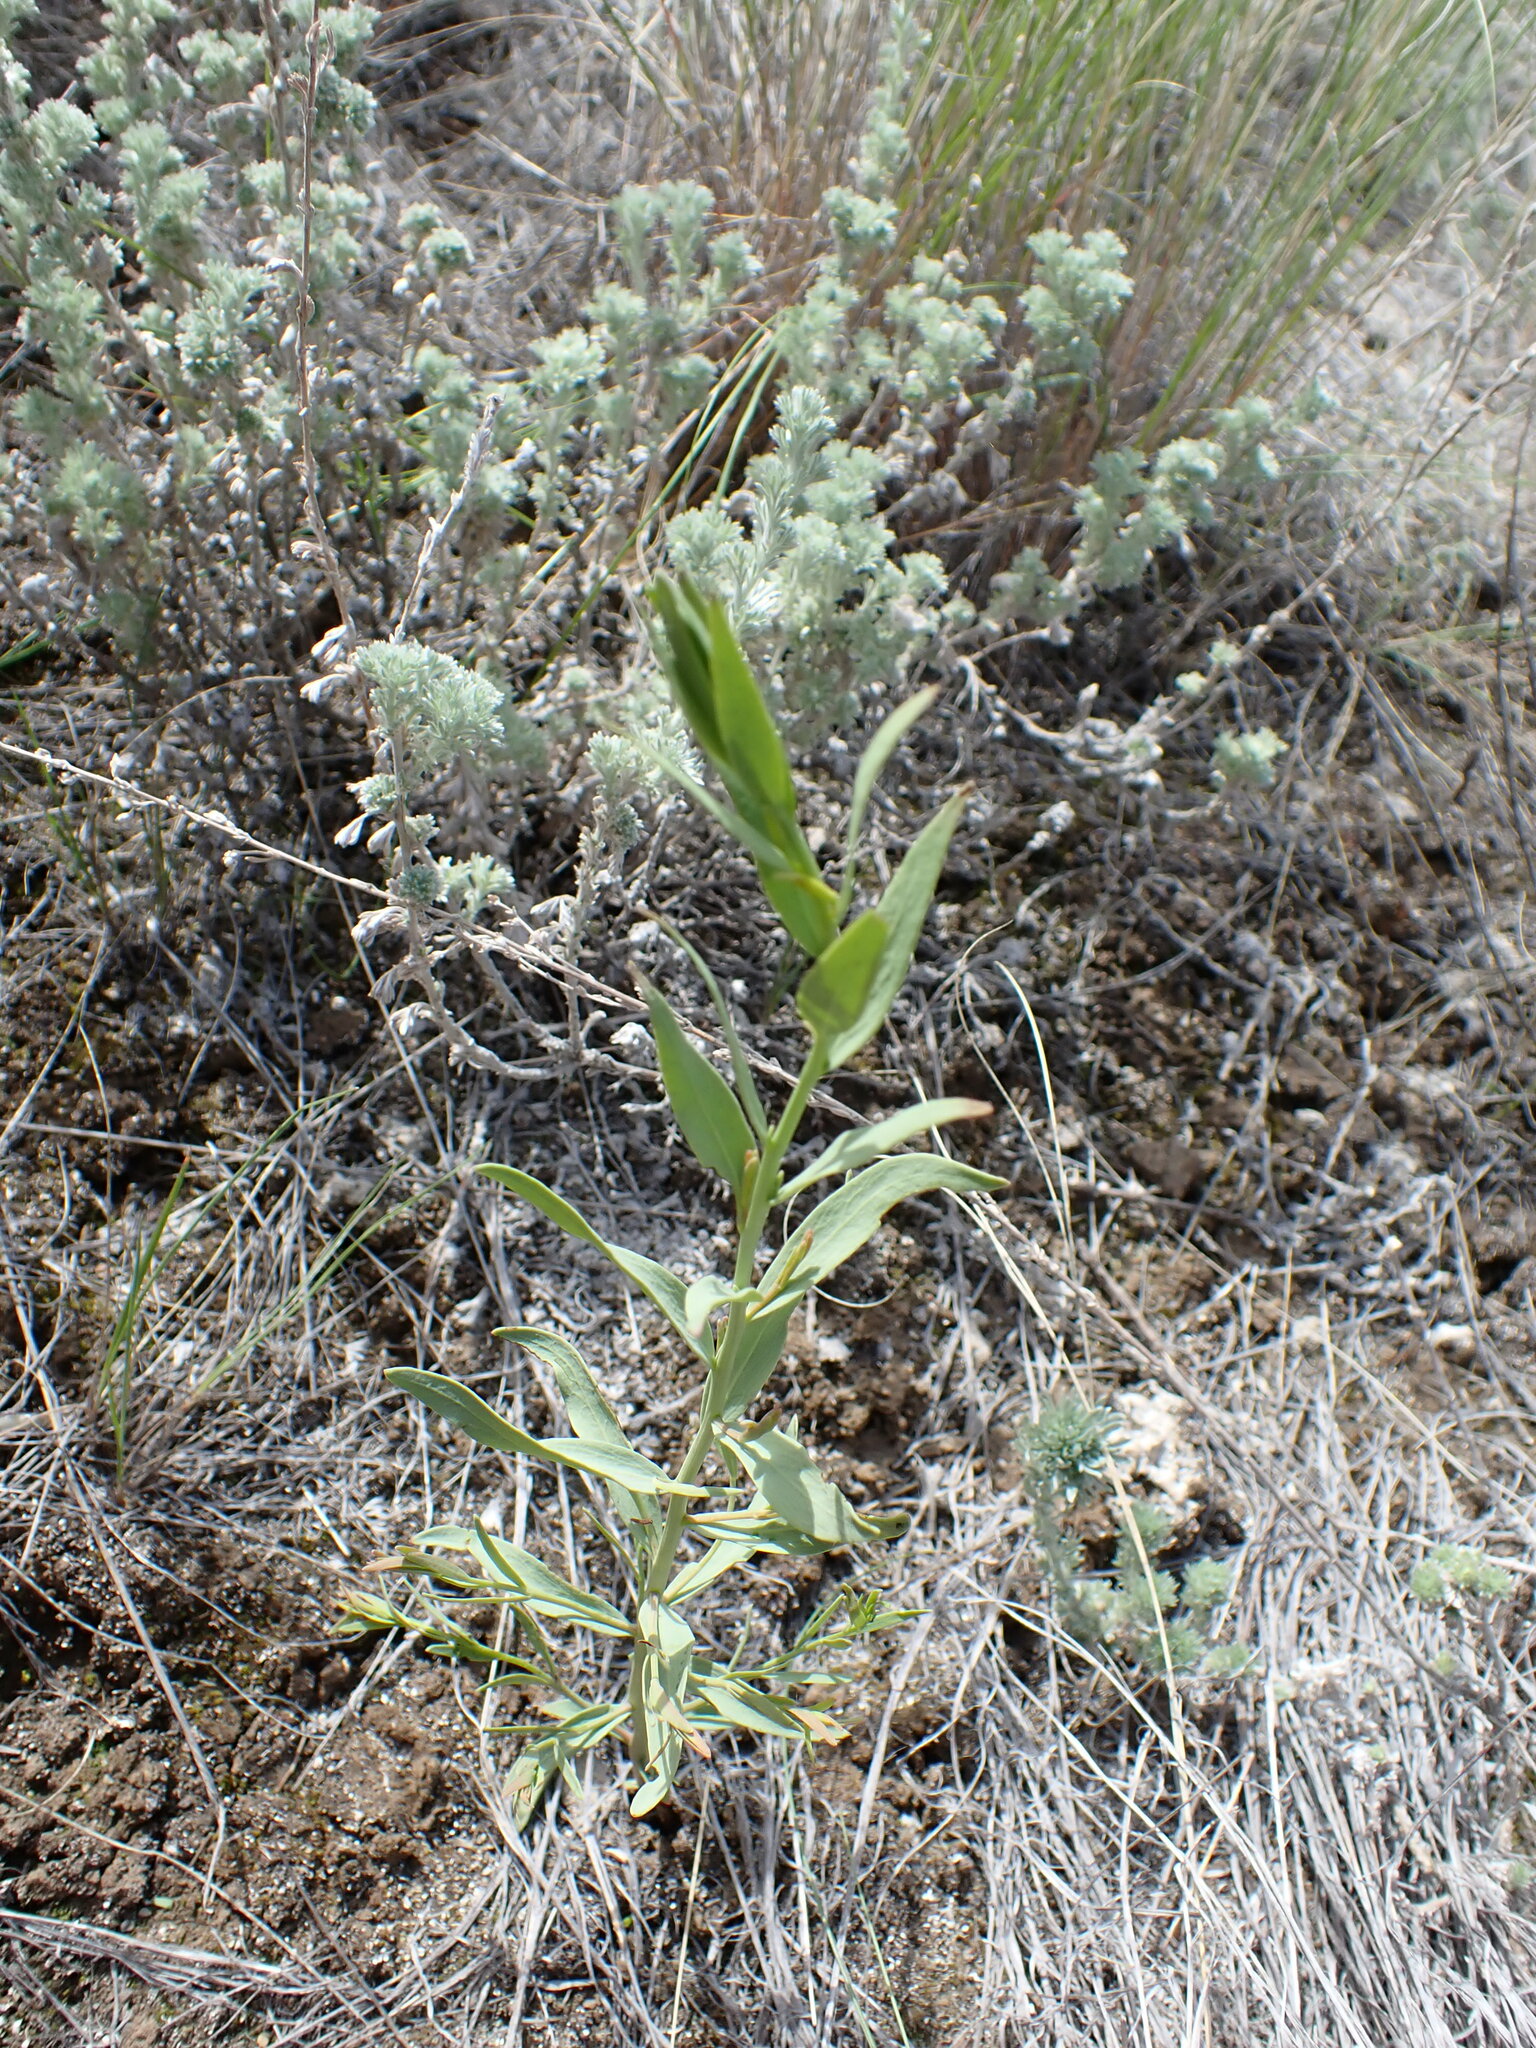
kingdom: Plantae
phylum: Tracheophyta
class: Magnoliopsida
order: Santalales
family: Comandraceae
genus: Comandra
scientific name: Comandra umbellata
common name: Bastard toadflax
